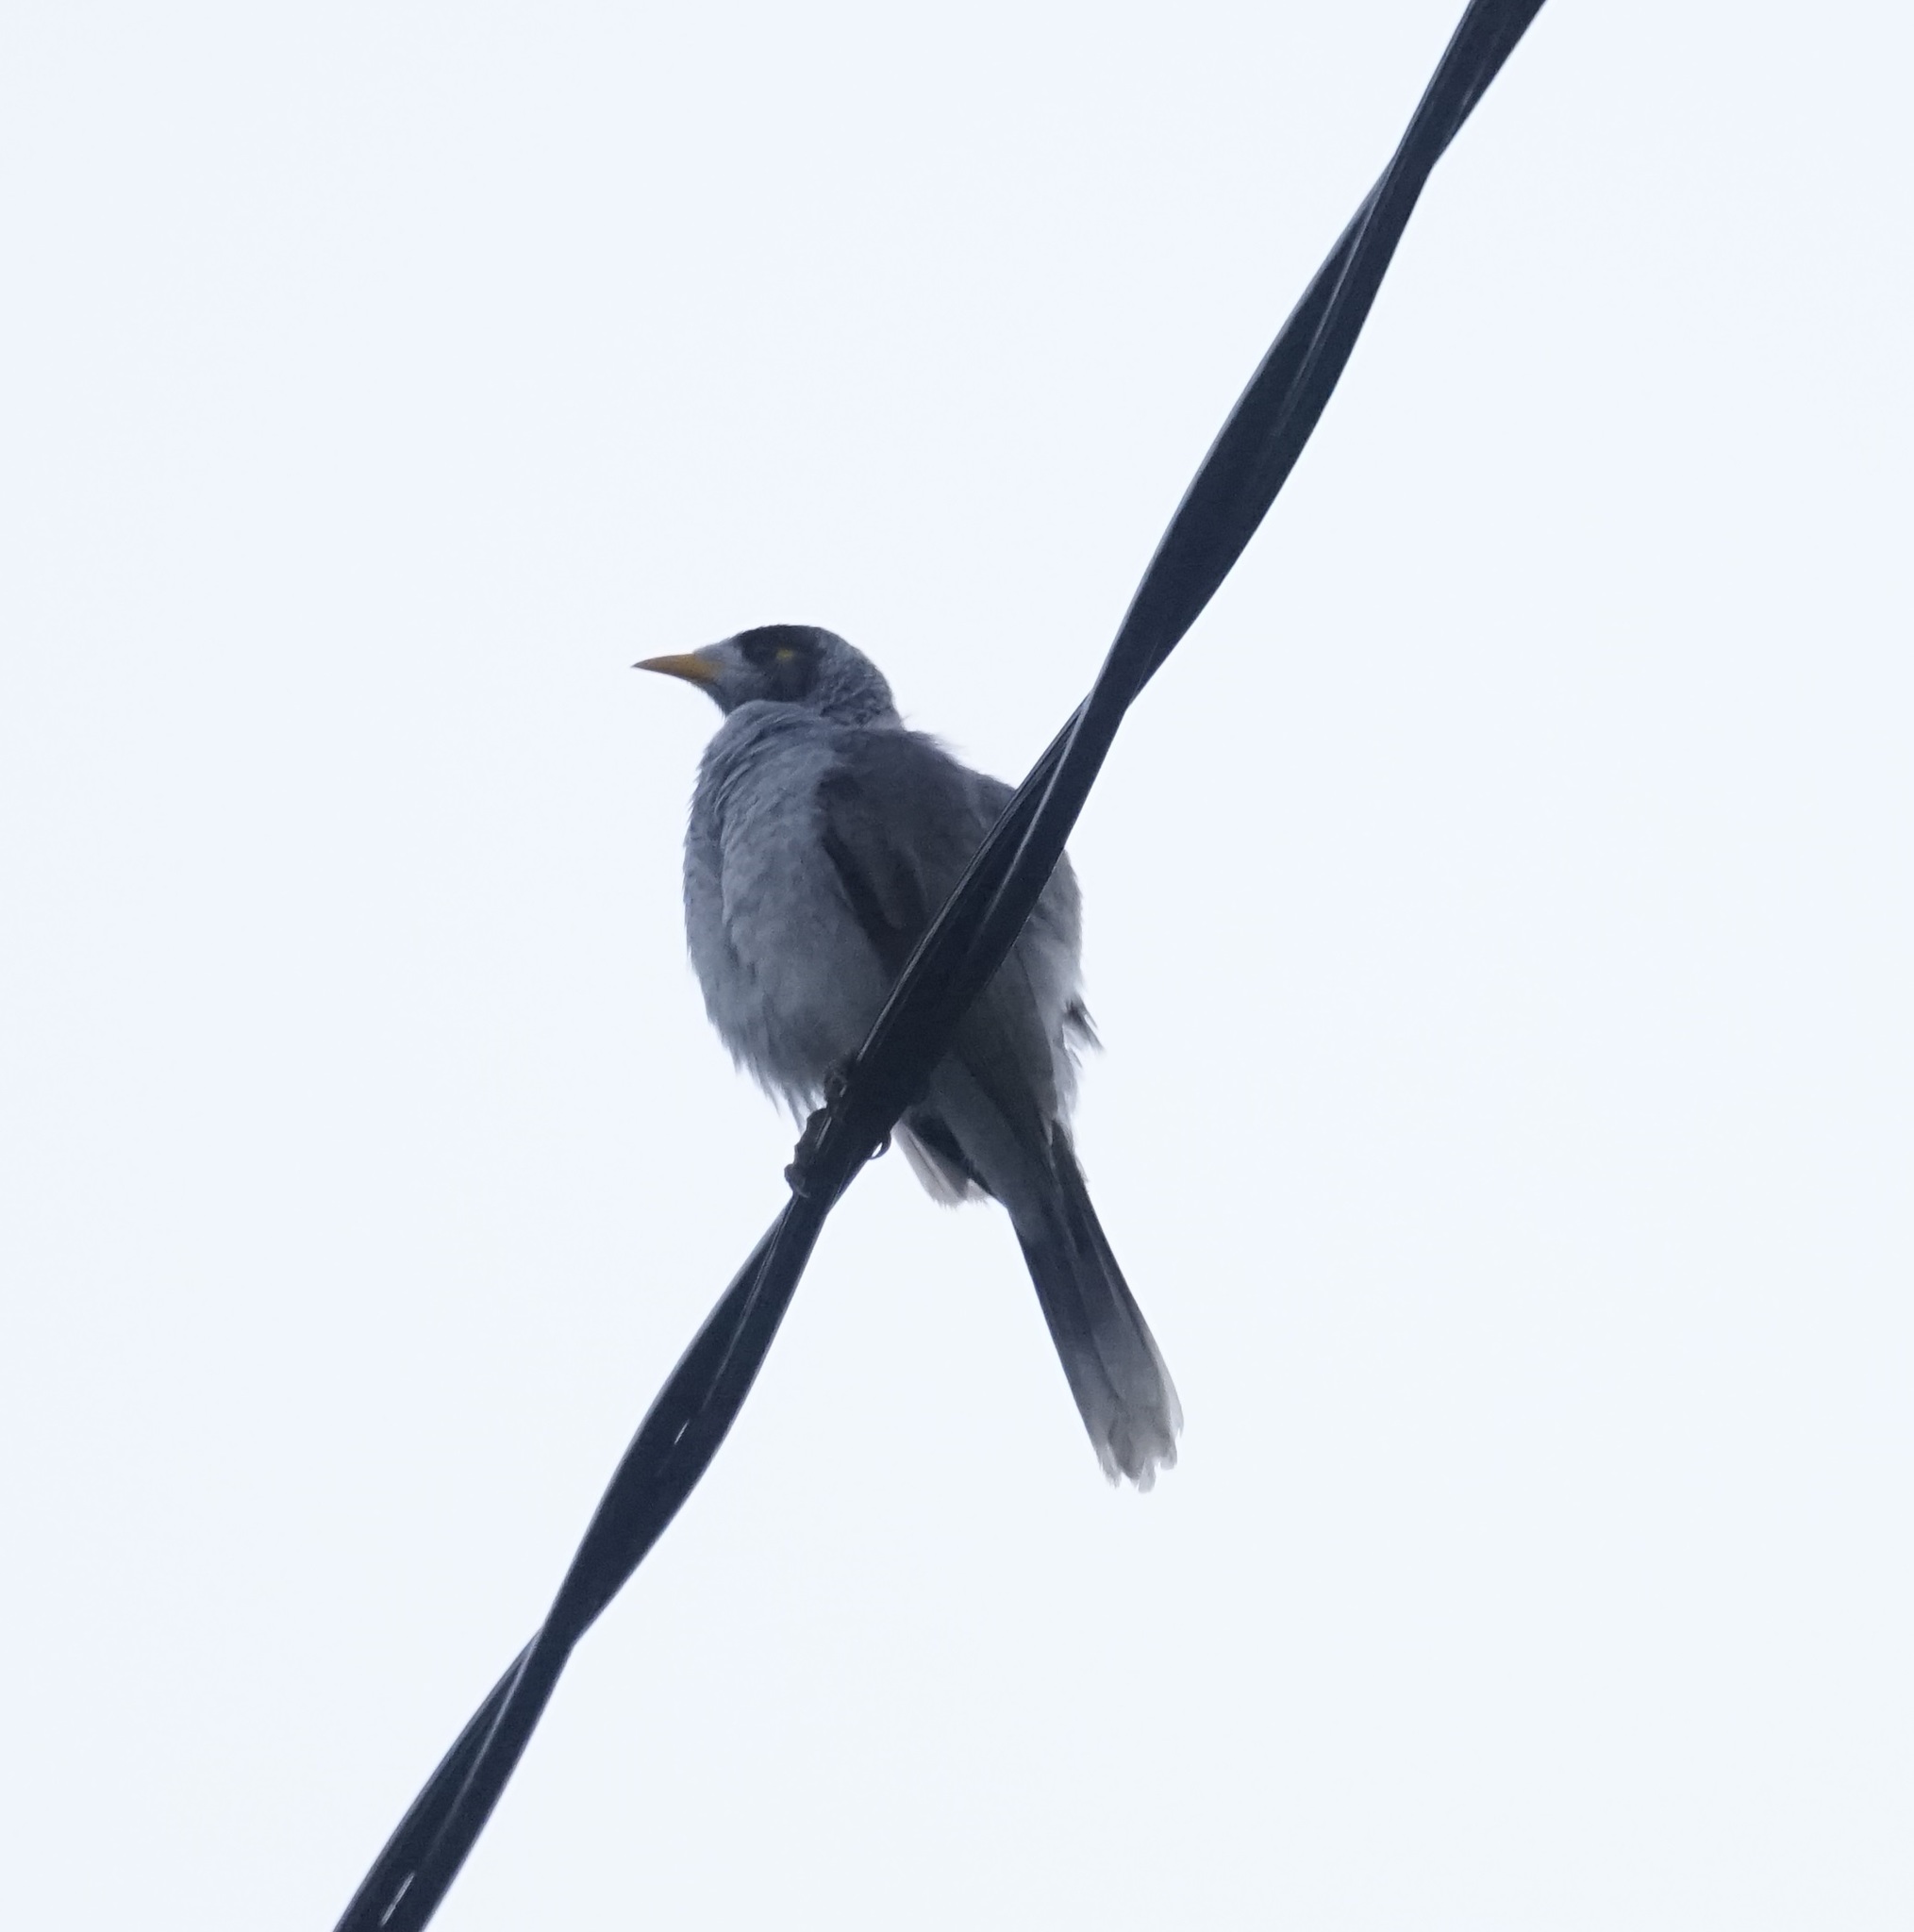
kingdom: Animalia
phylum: Chordata
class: Aves
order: Passeriformes
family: Meliphagidae
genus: Manorina
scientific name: Manorina melanocephala
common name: Noisy miner
